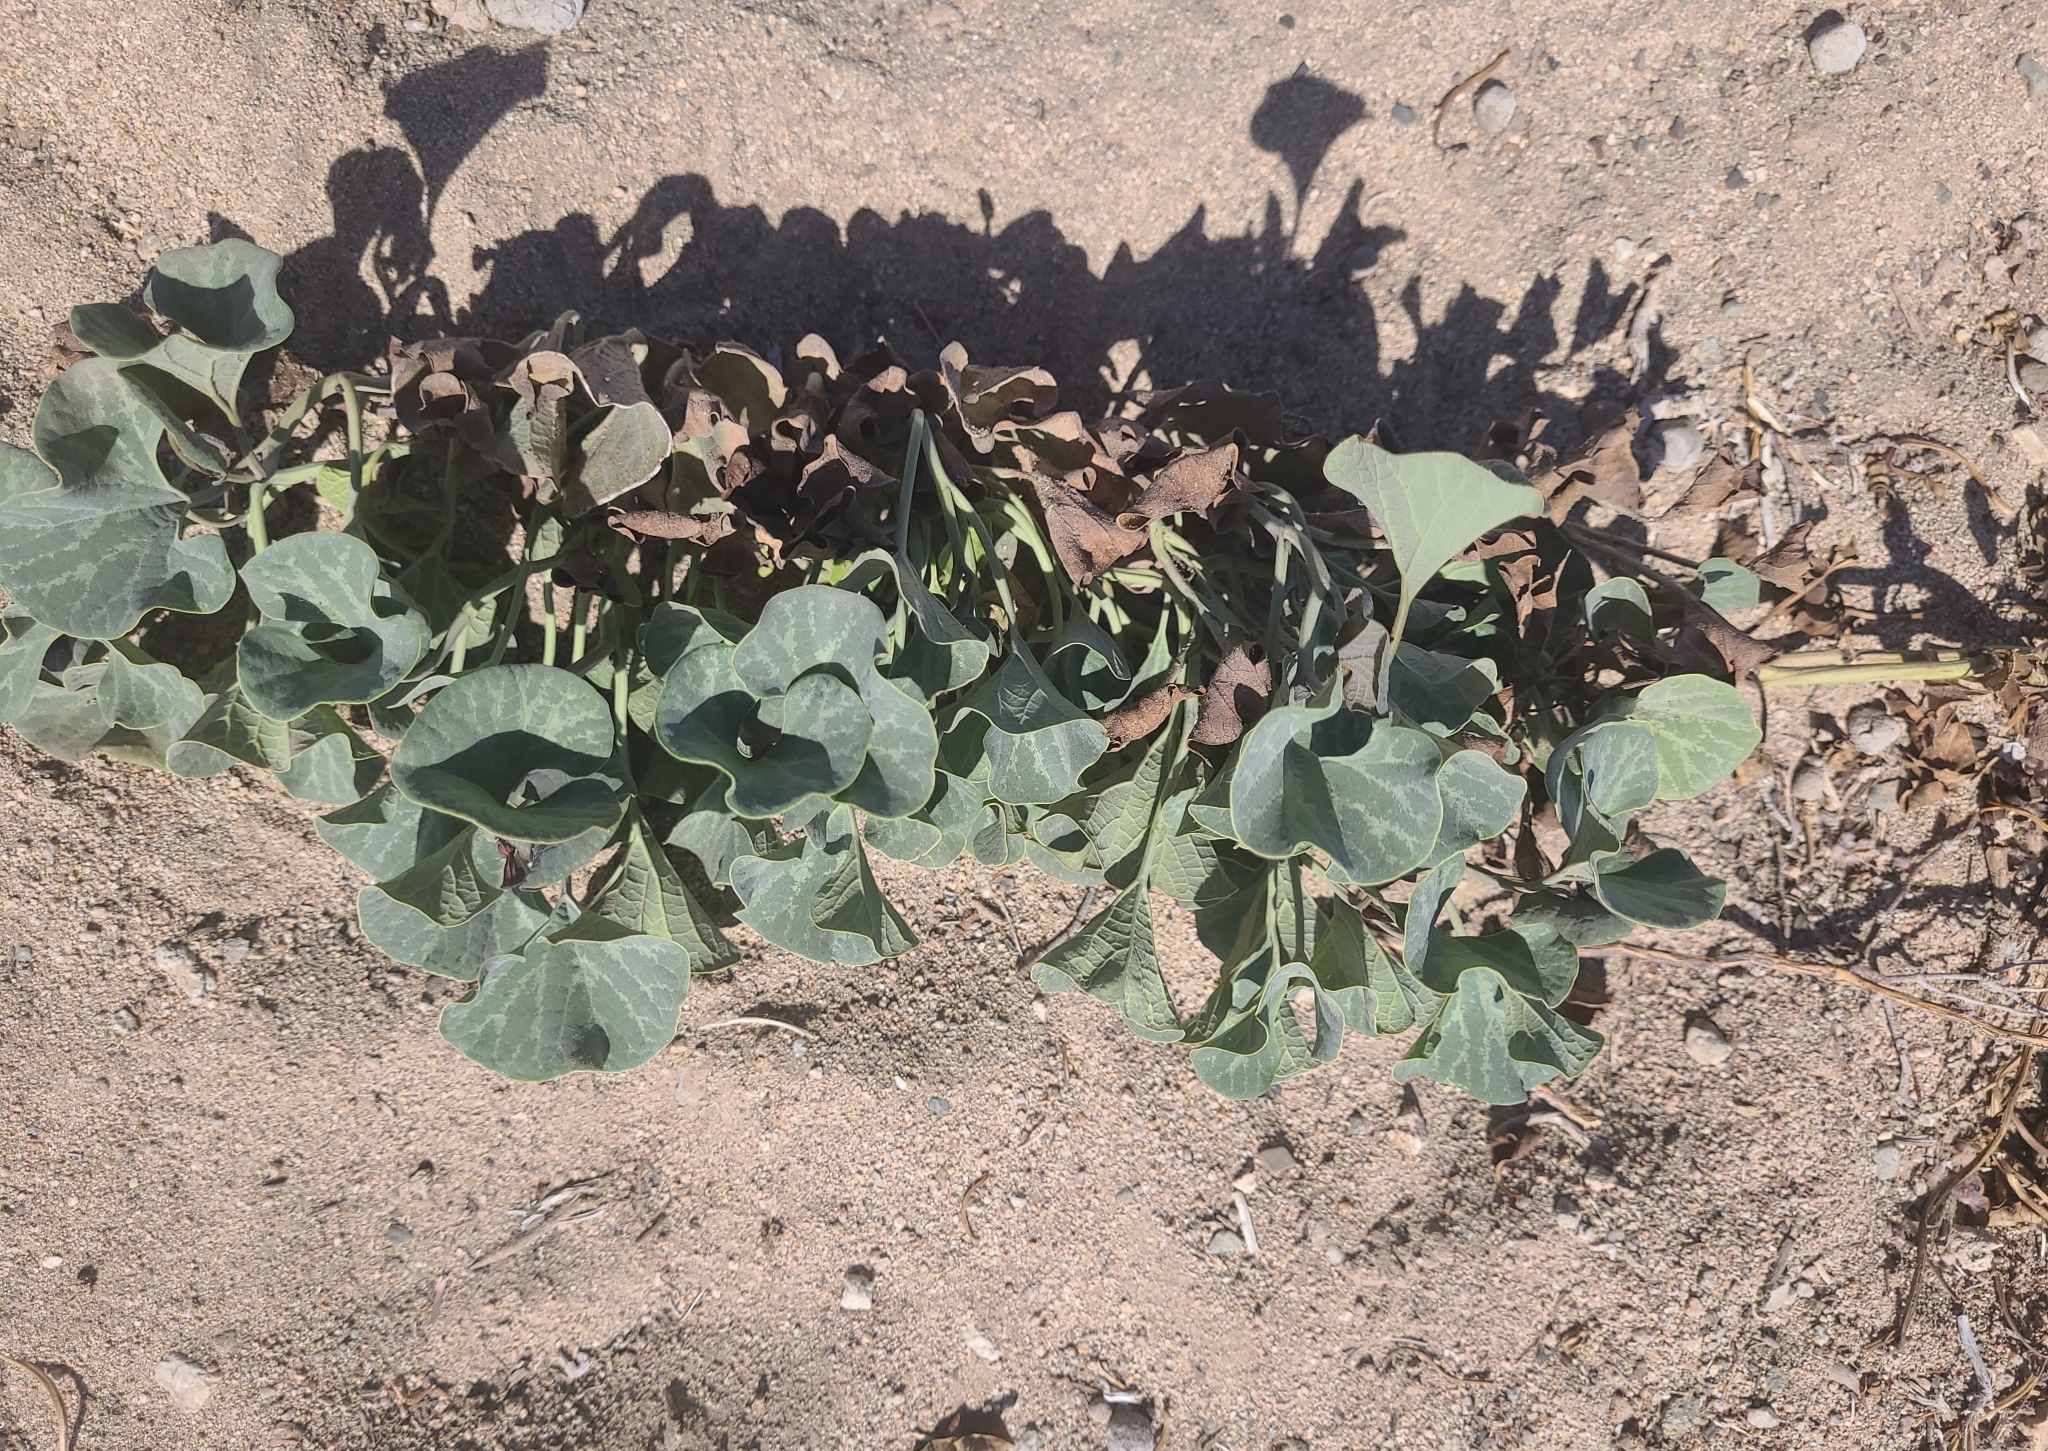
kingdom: Plantae
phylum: Tracheophyta
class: Magnoliopsida
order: Piperales
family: Aristolochiaceae
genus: Aristolochia
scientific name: Aristolochia chilensis
